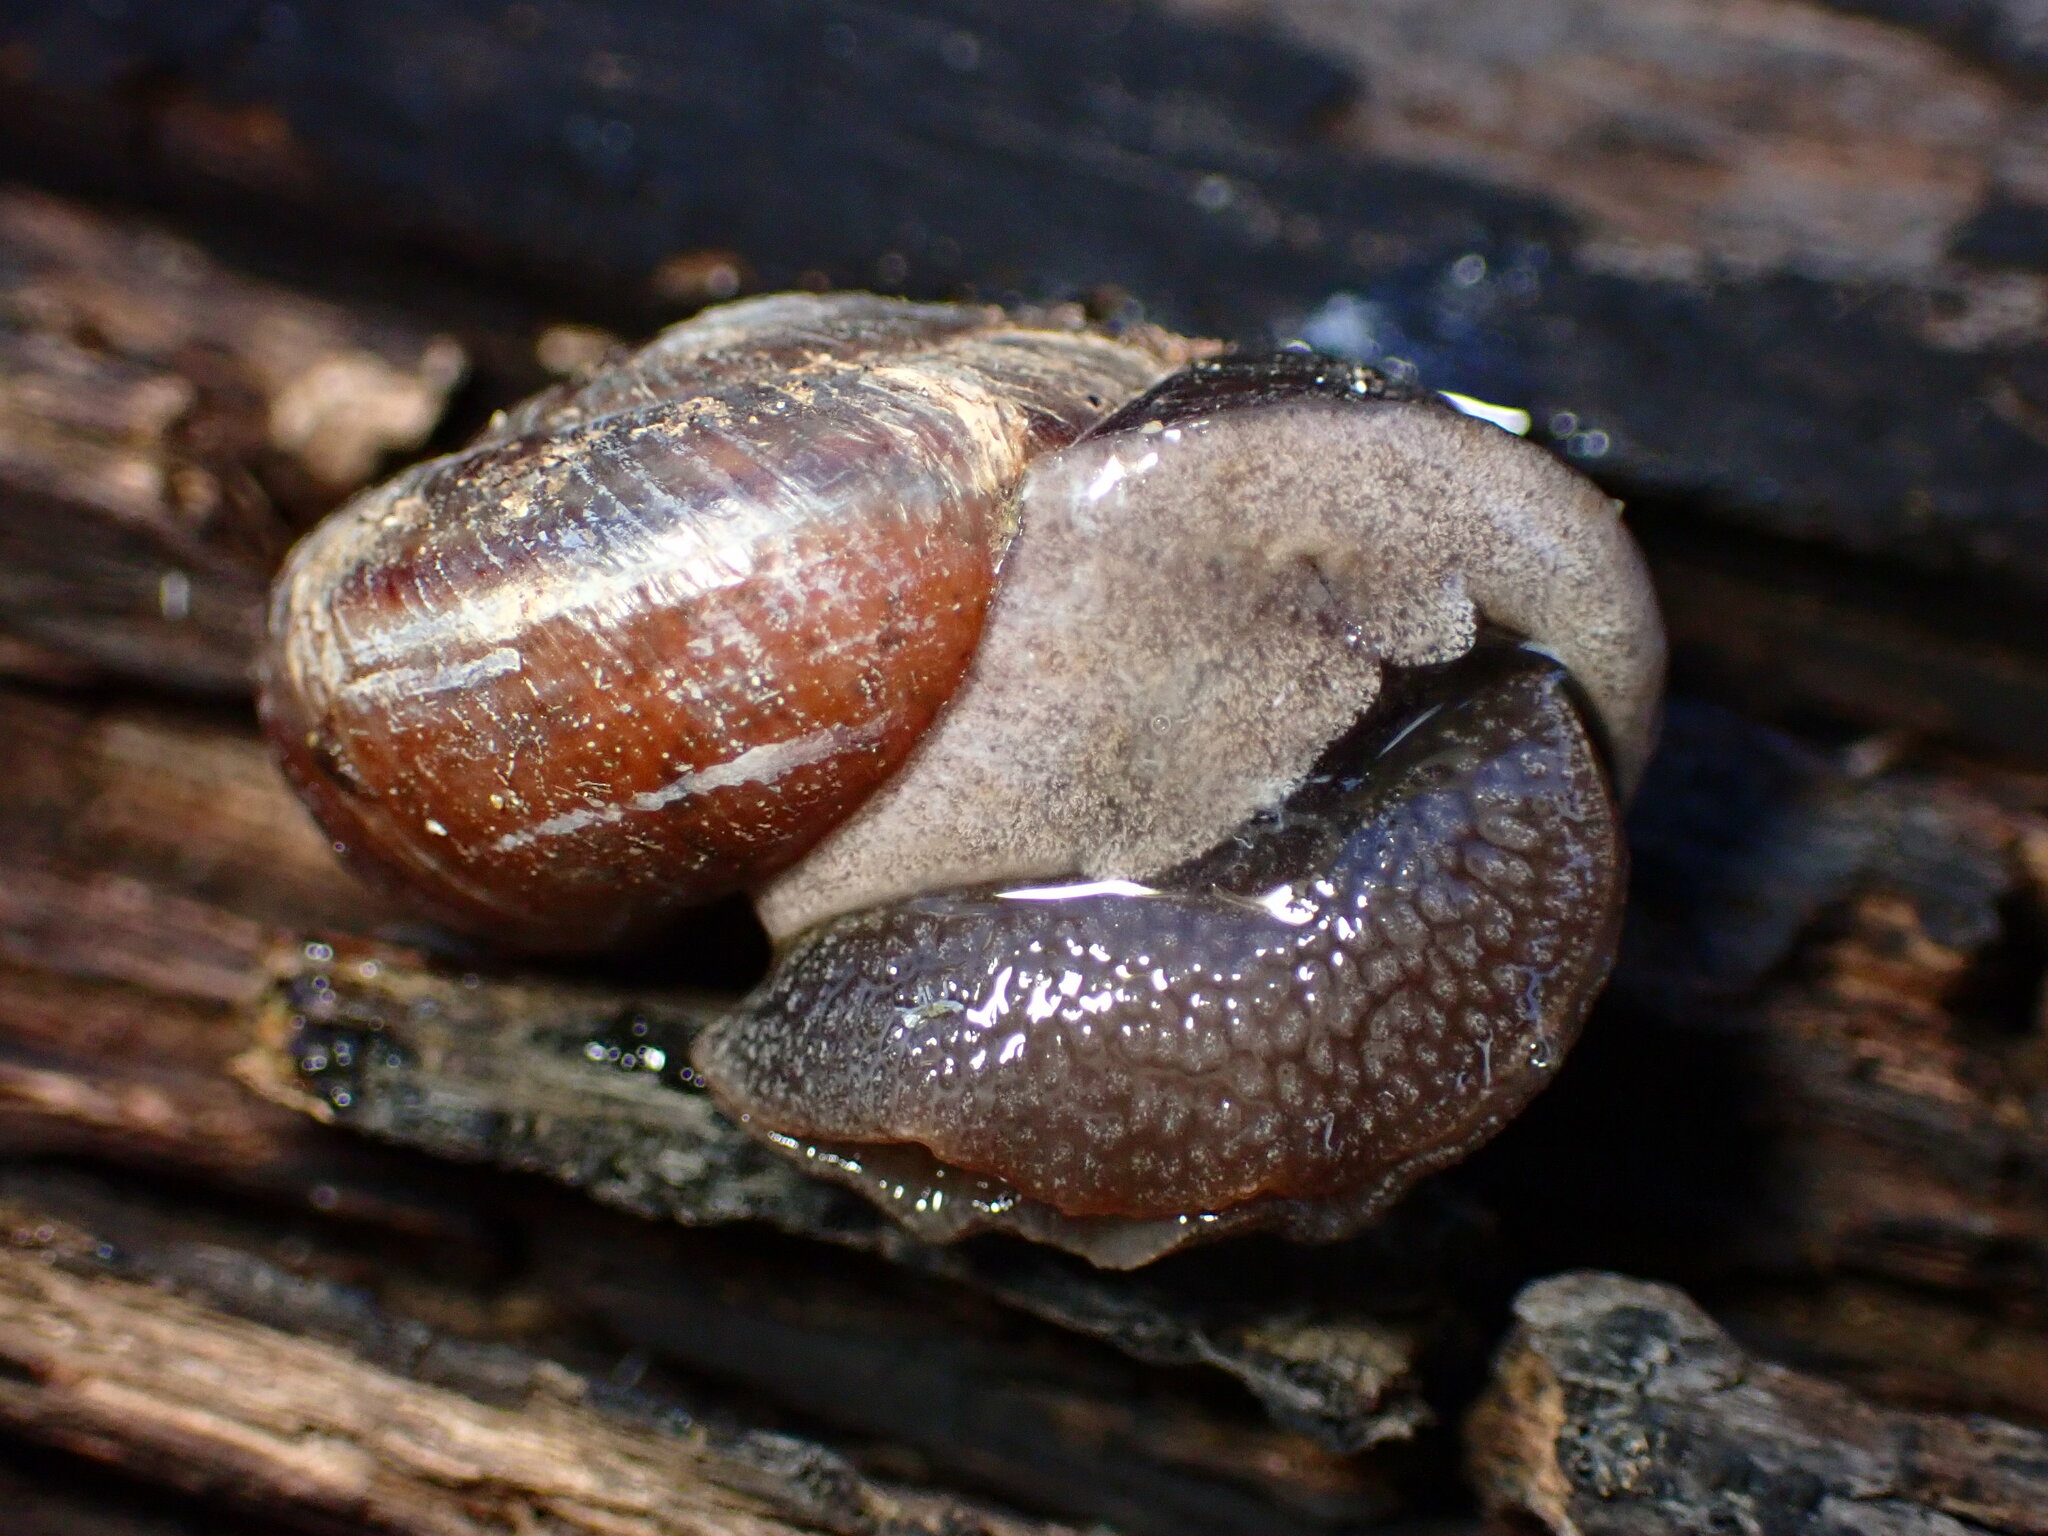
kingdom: Animalia
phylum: Mollusca
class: Gastropoda
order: Stylommatophora
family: Xanthonychidae
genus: Helminthoglypta
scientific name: Helminthoglypta umbilicata
